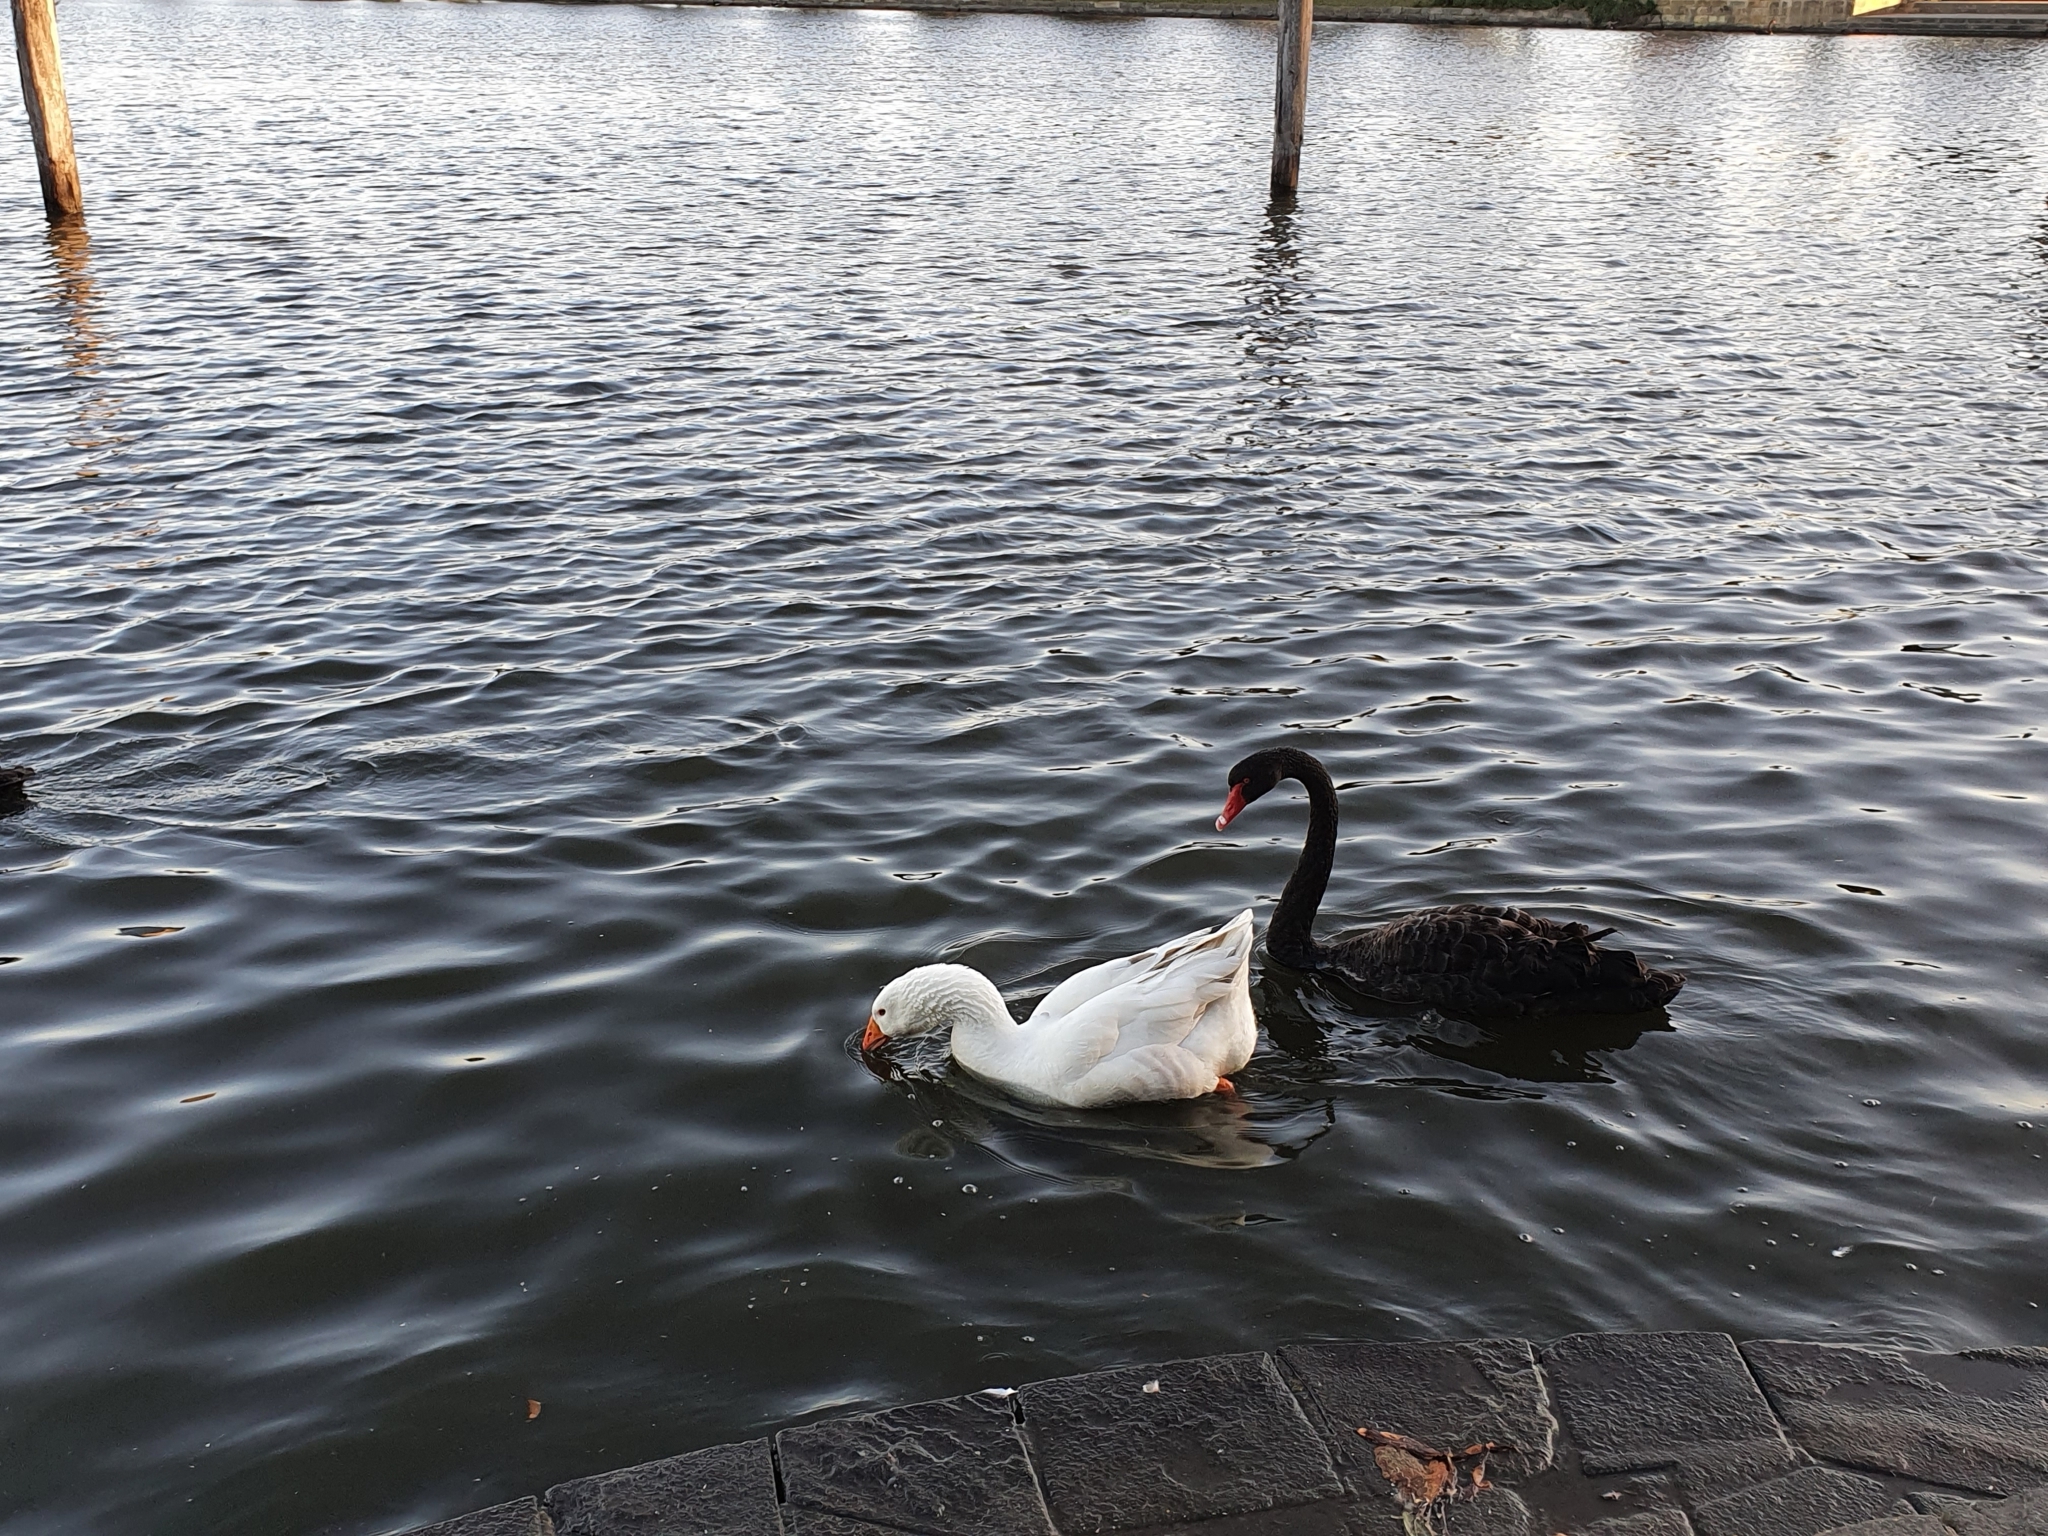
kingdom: Animalia
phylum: Chordata
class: Aves
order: Anseriformes
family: Anatidae
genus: Anser
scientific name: Anser anser
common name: Greylag goose
